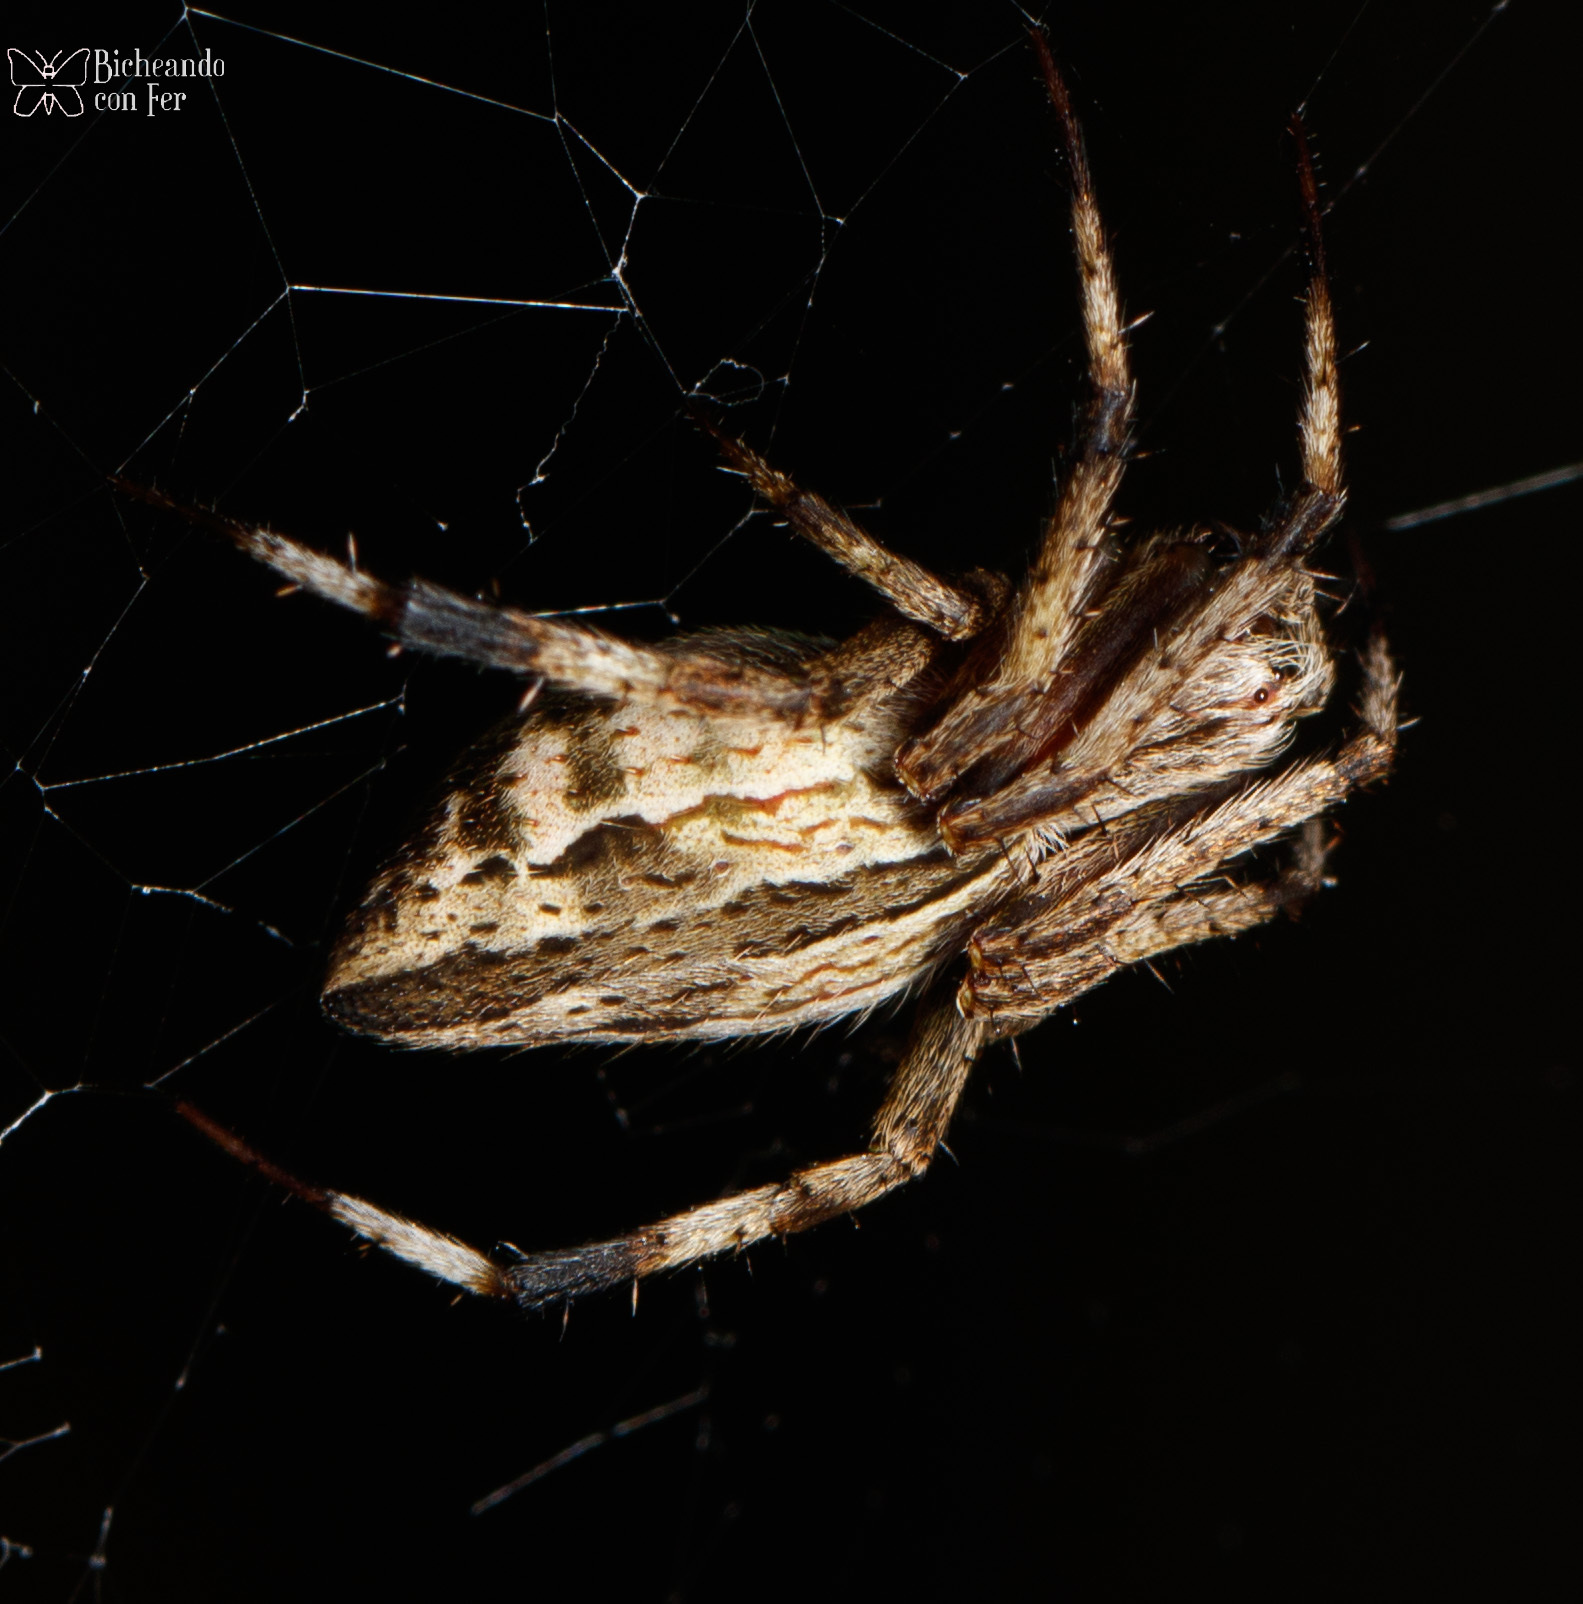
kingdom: Animalia
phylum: Arthropoda
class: Arachnida
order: Araneae
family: Araneidae
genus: Eustala
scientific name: Eustala illicita
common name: Orb weavers
